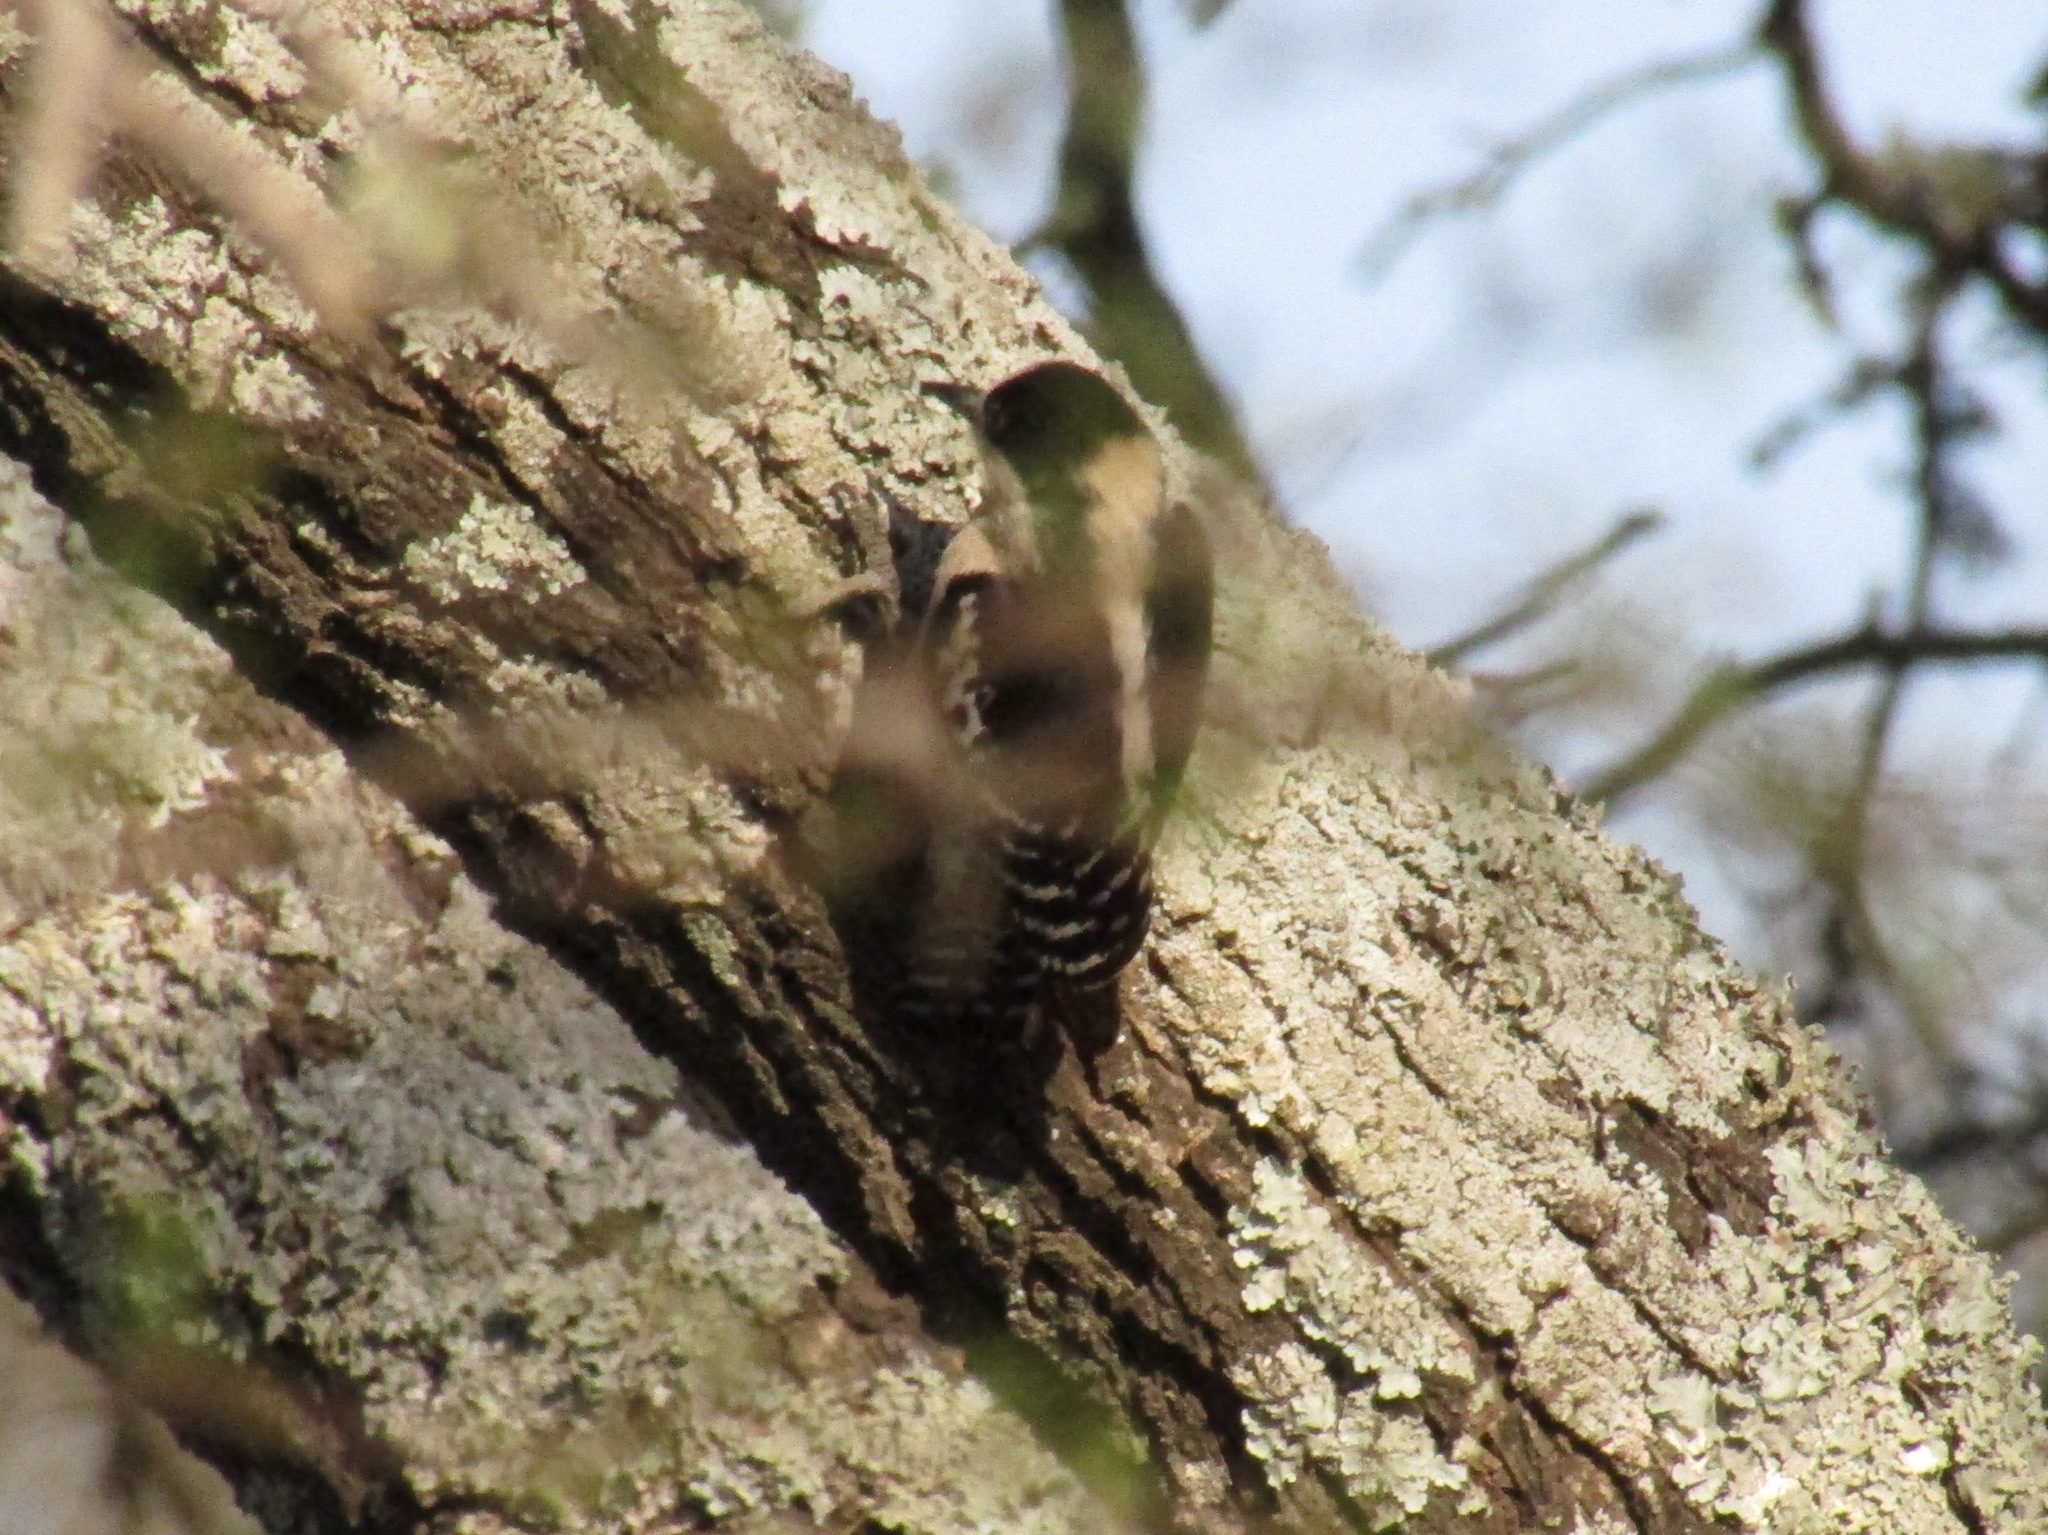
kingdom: Animalia
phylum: Chordata
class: Aves
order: Piciformes
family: Picidae
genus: Melanerpes
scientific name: Melanerpes cactorum
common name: White-fronted woodpecker
